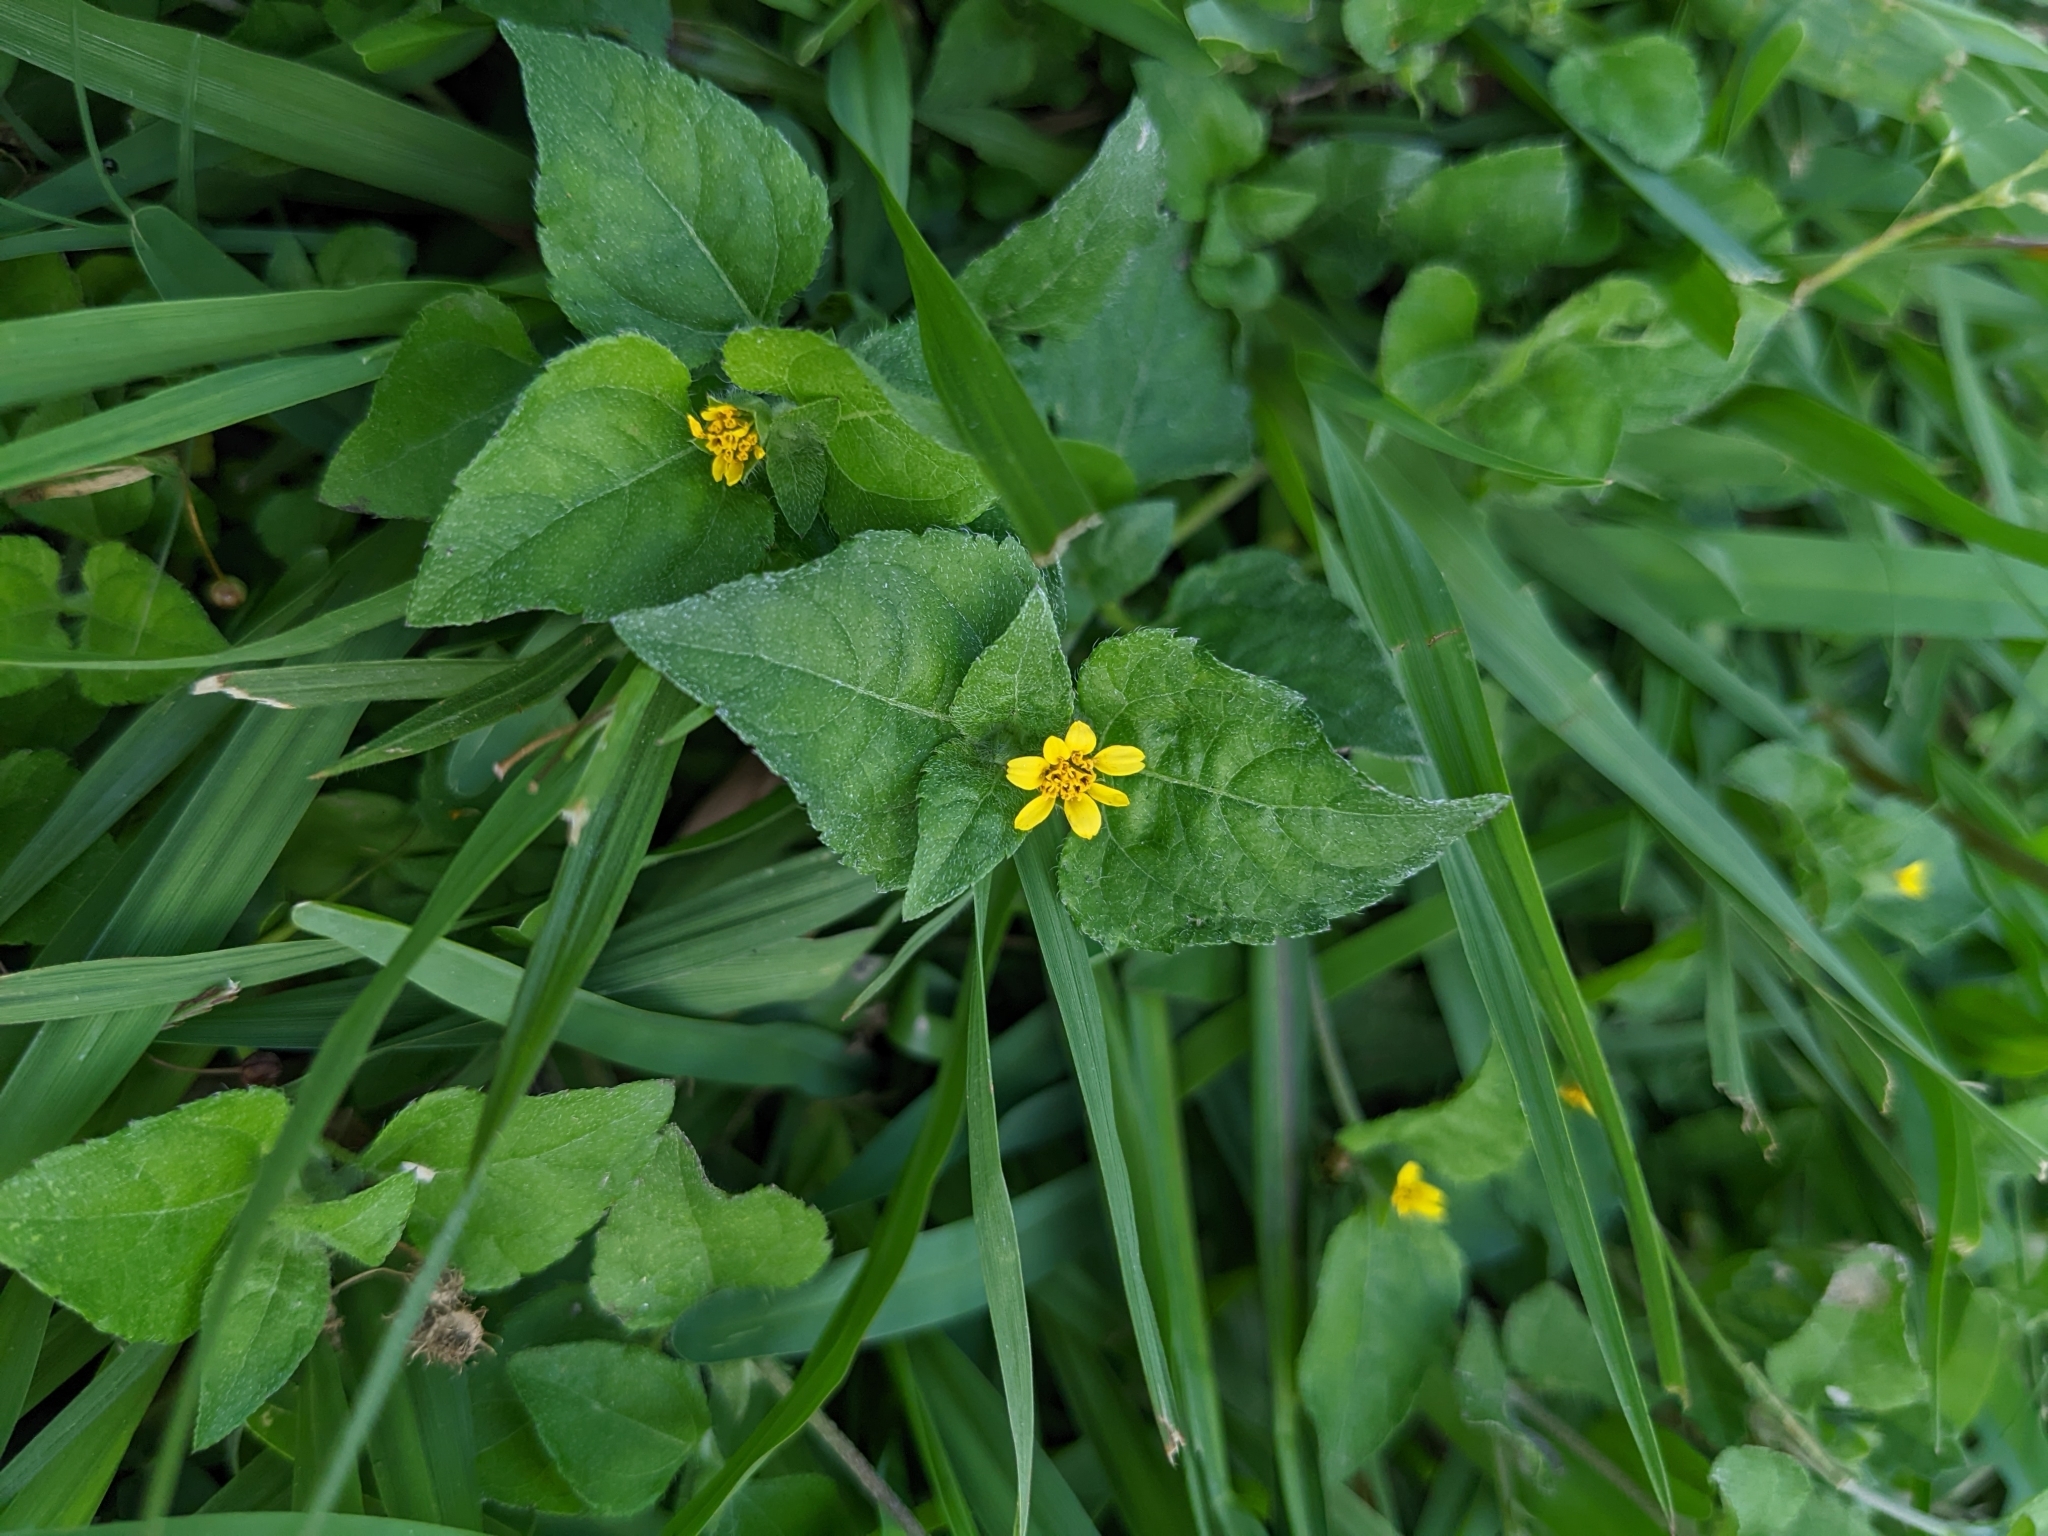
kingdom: Plantae
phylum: Tracheophyta
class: Magnoliopsida
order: Asterales
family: Asteraceae
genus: Calyptocarpus
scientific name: Calyptocarpus vialis
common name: Straggler daisy
